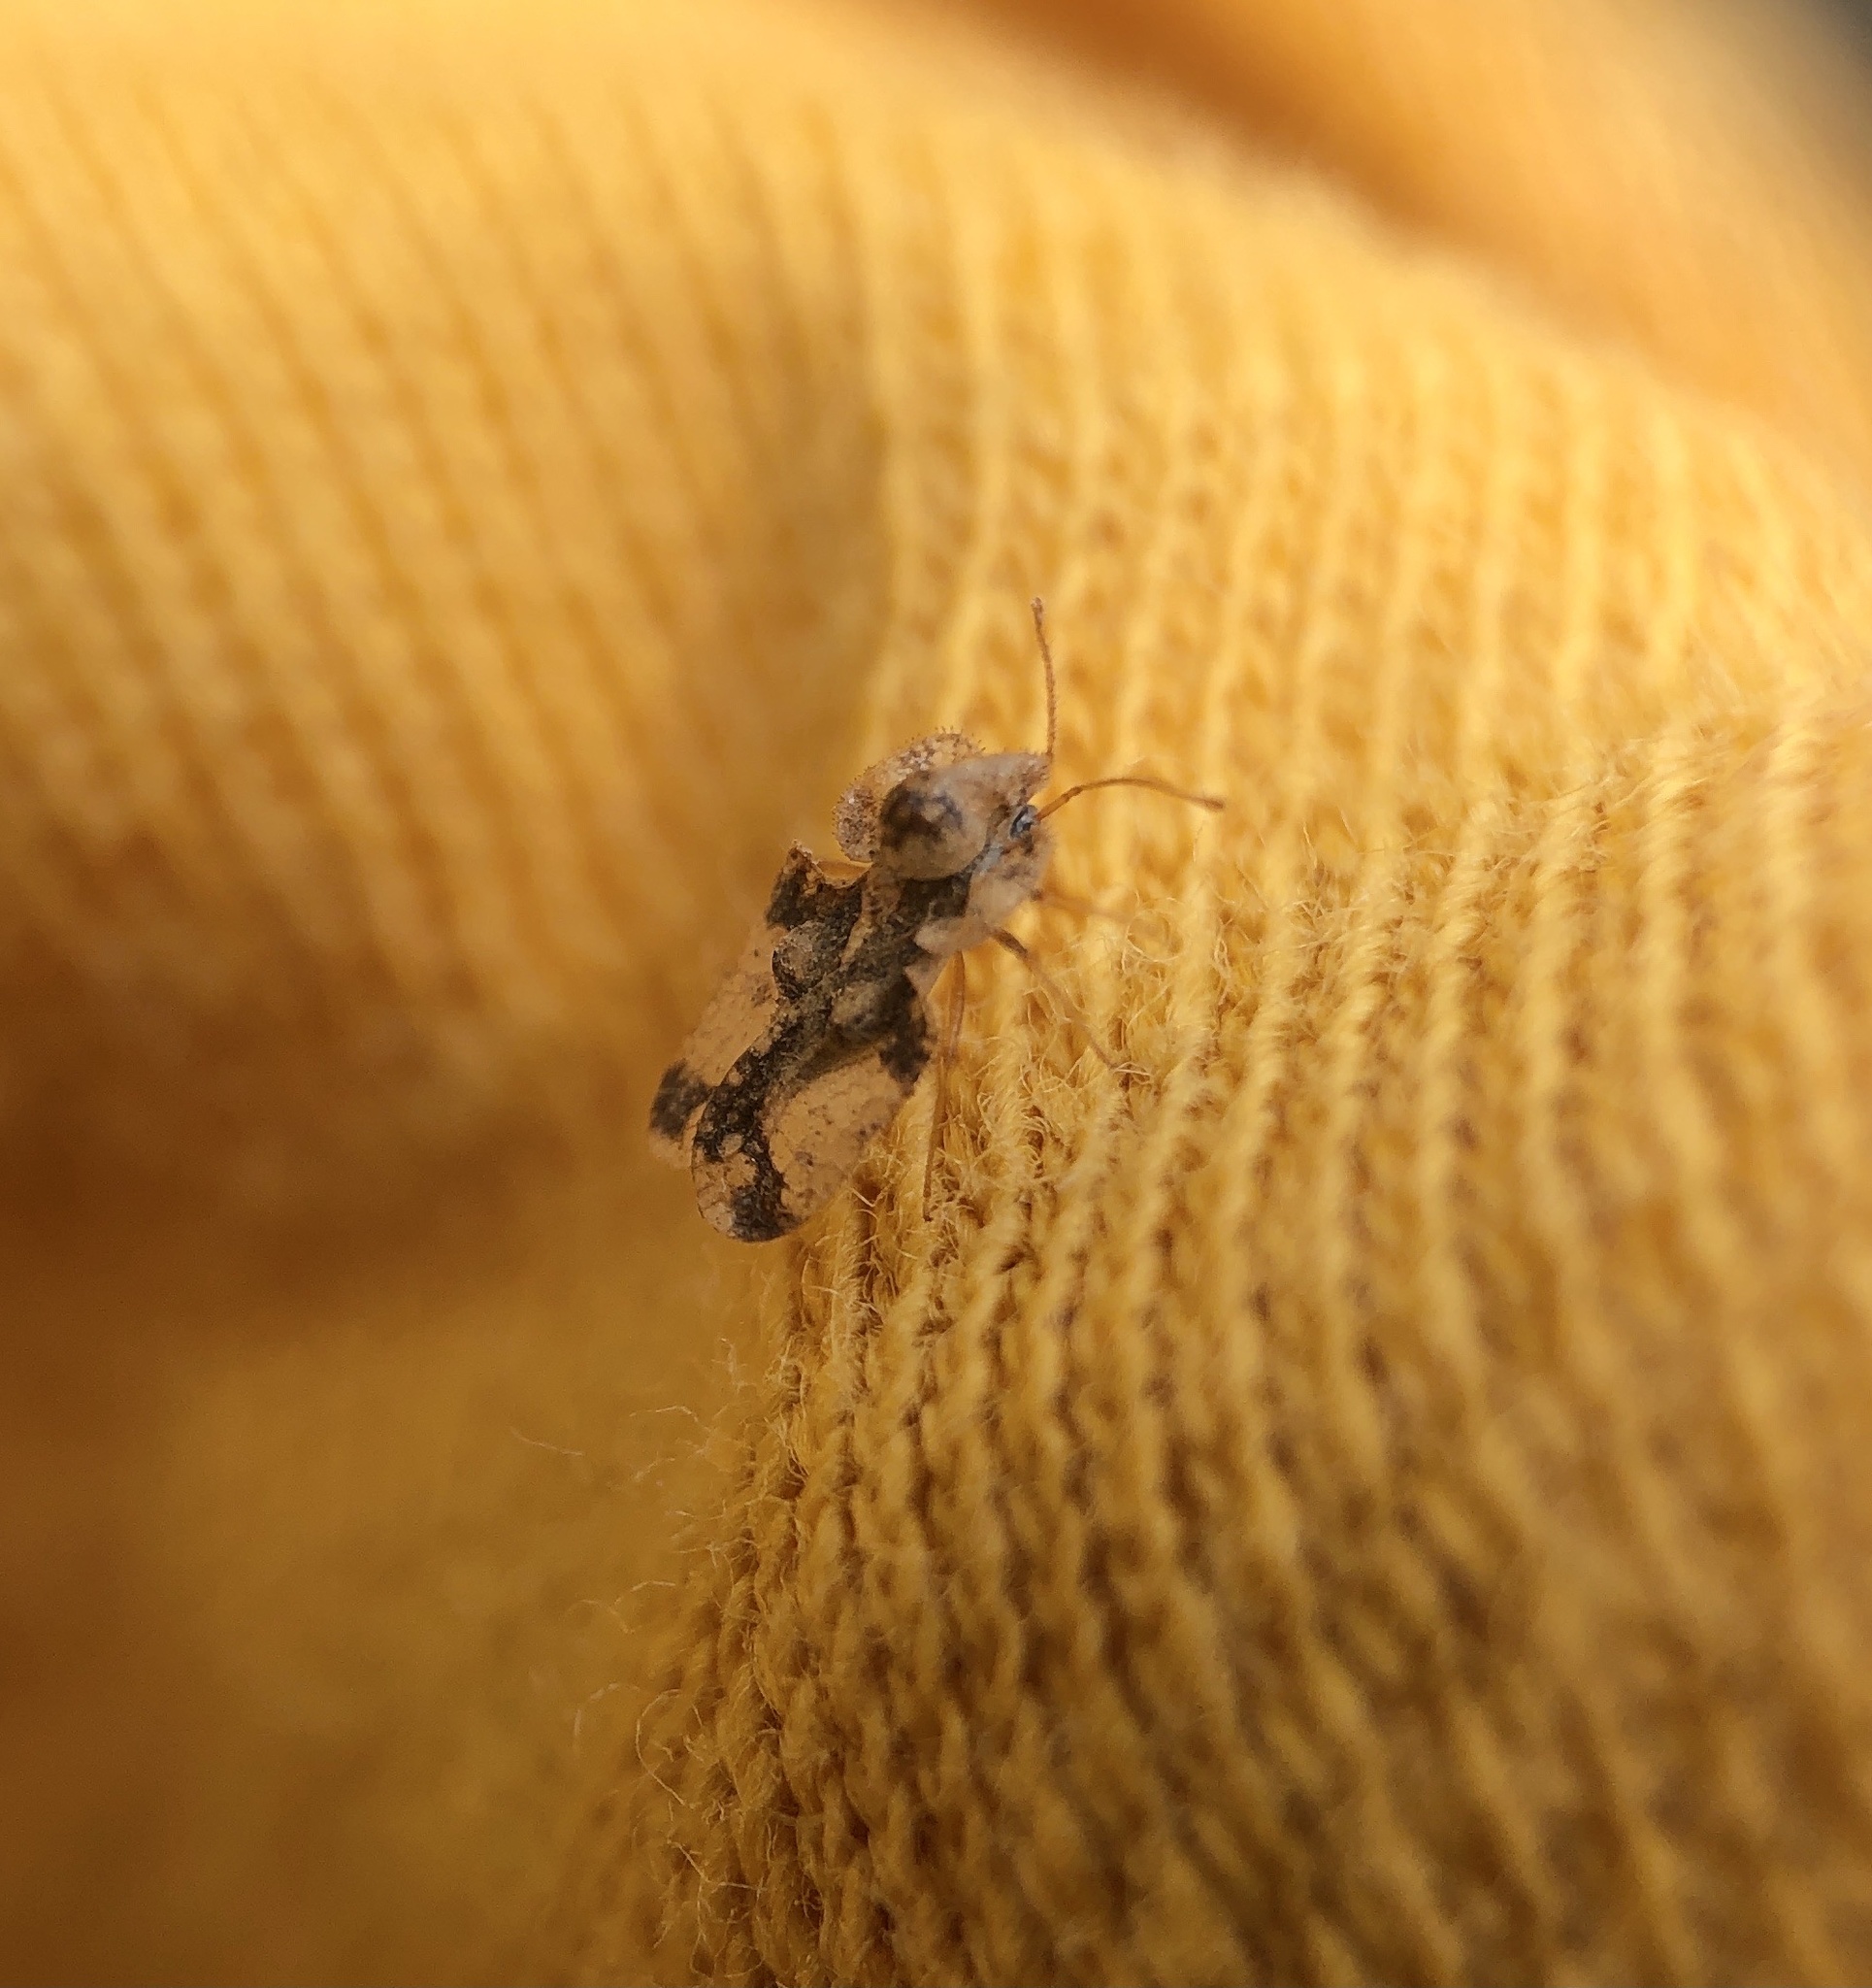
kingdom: Animalia
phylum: Arthropoda
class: Insecta
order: Hemiptera
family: Tingidae
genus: Corythucha
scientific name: Corythucha juglandis
